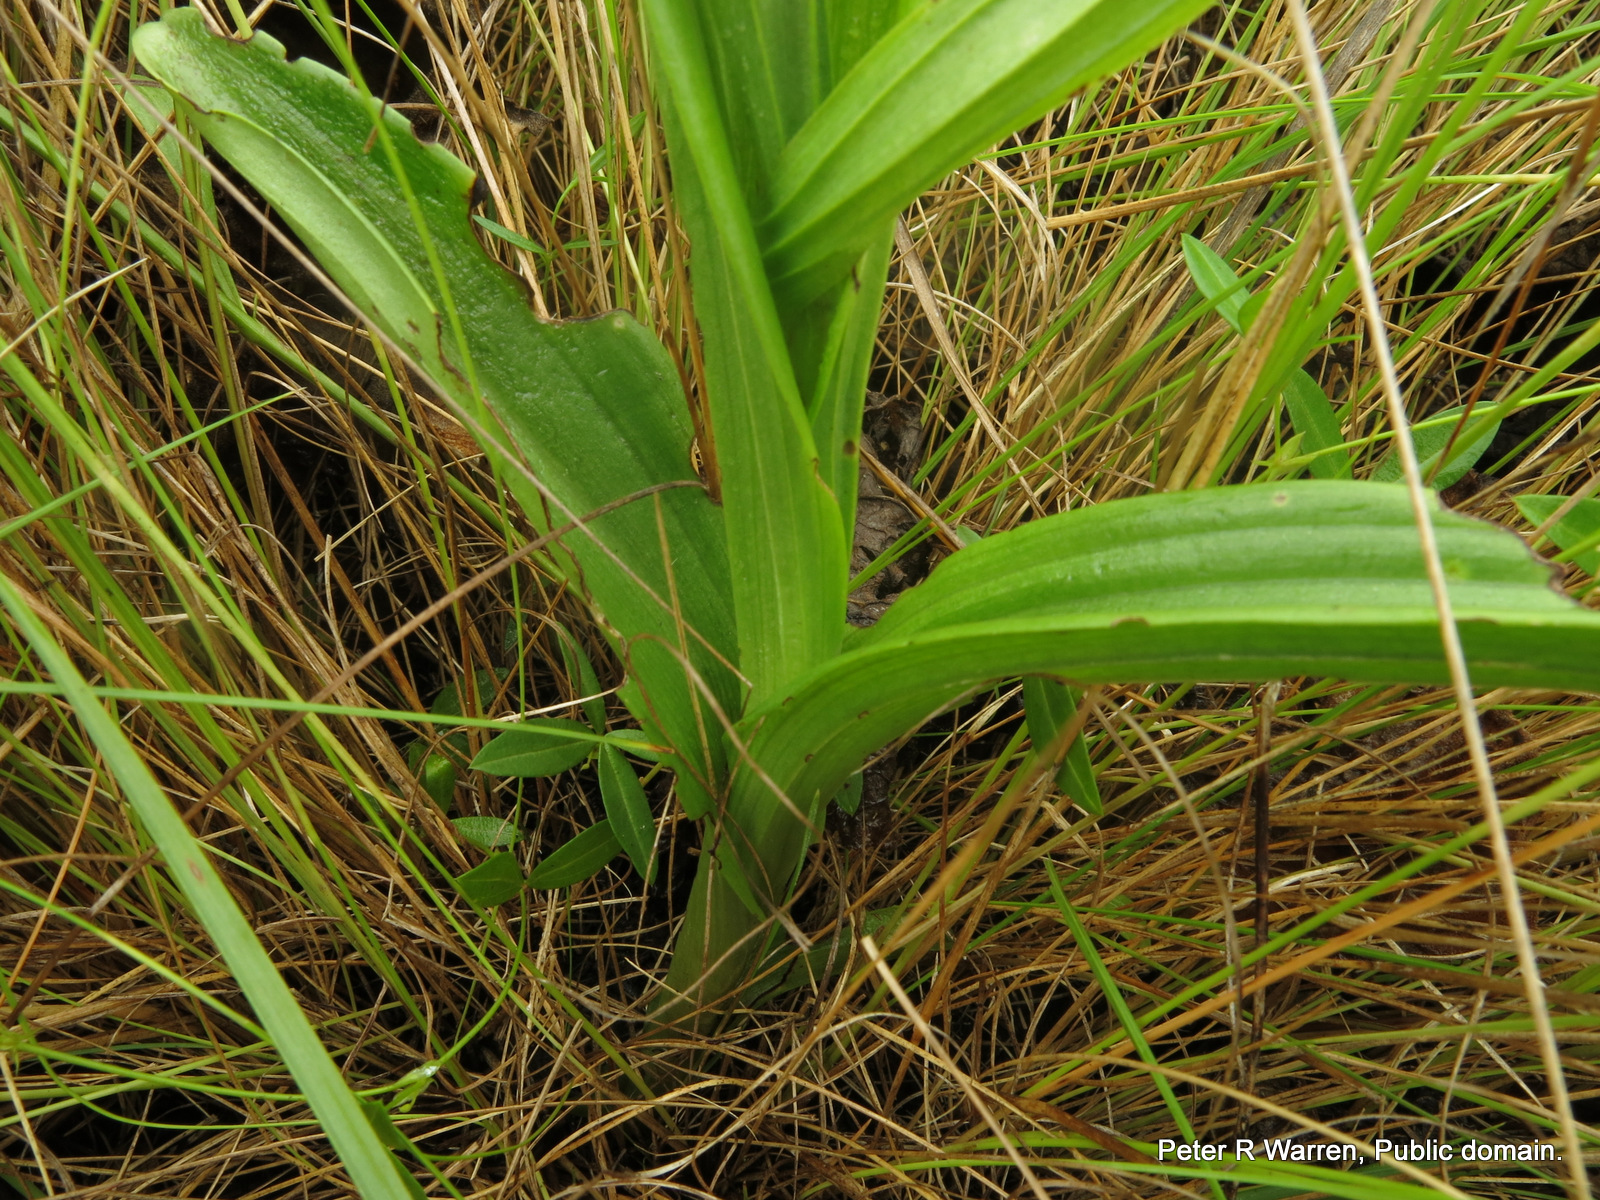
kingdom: Plantae
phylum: Tracheophyta
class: Liliopsida
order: Asparagales
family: Orchidaceae
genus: Habenaria
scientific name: Habenaria dives
